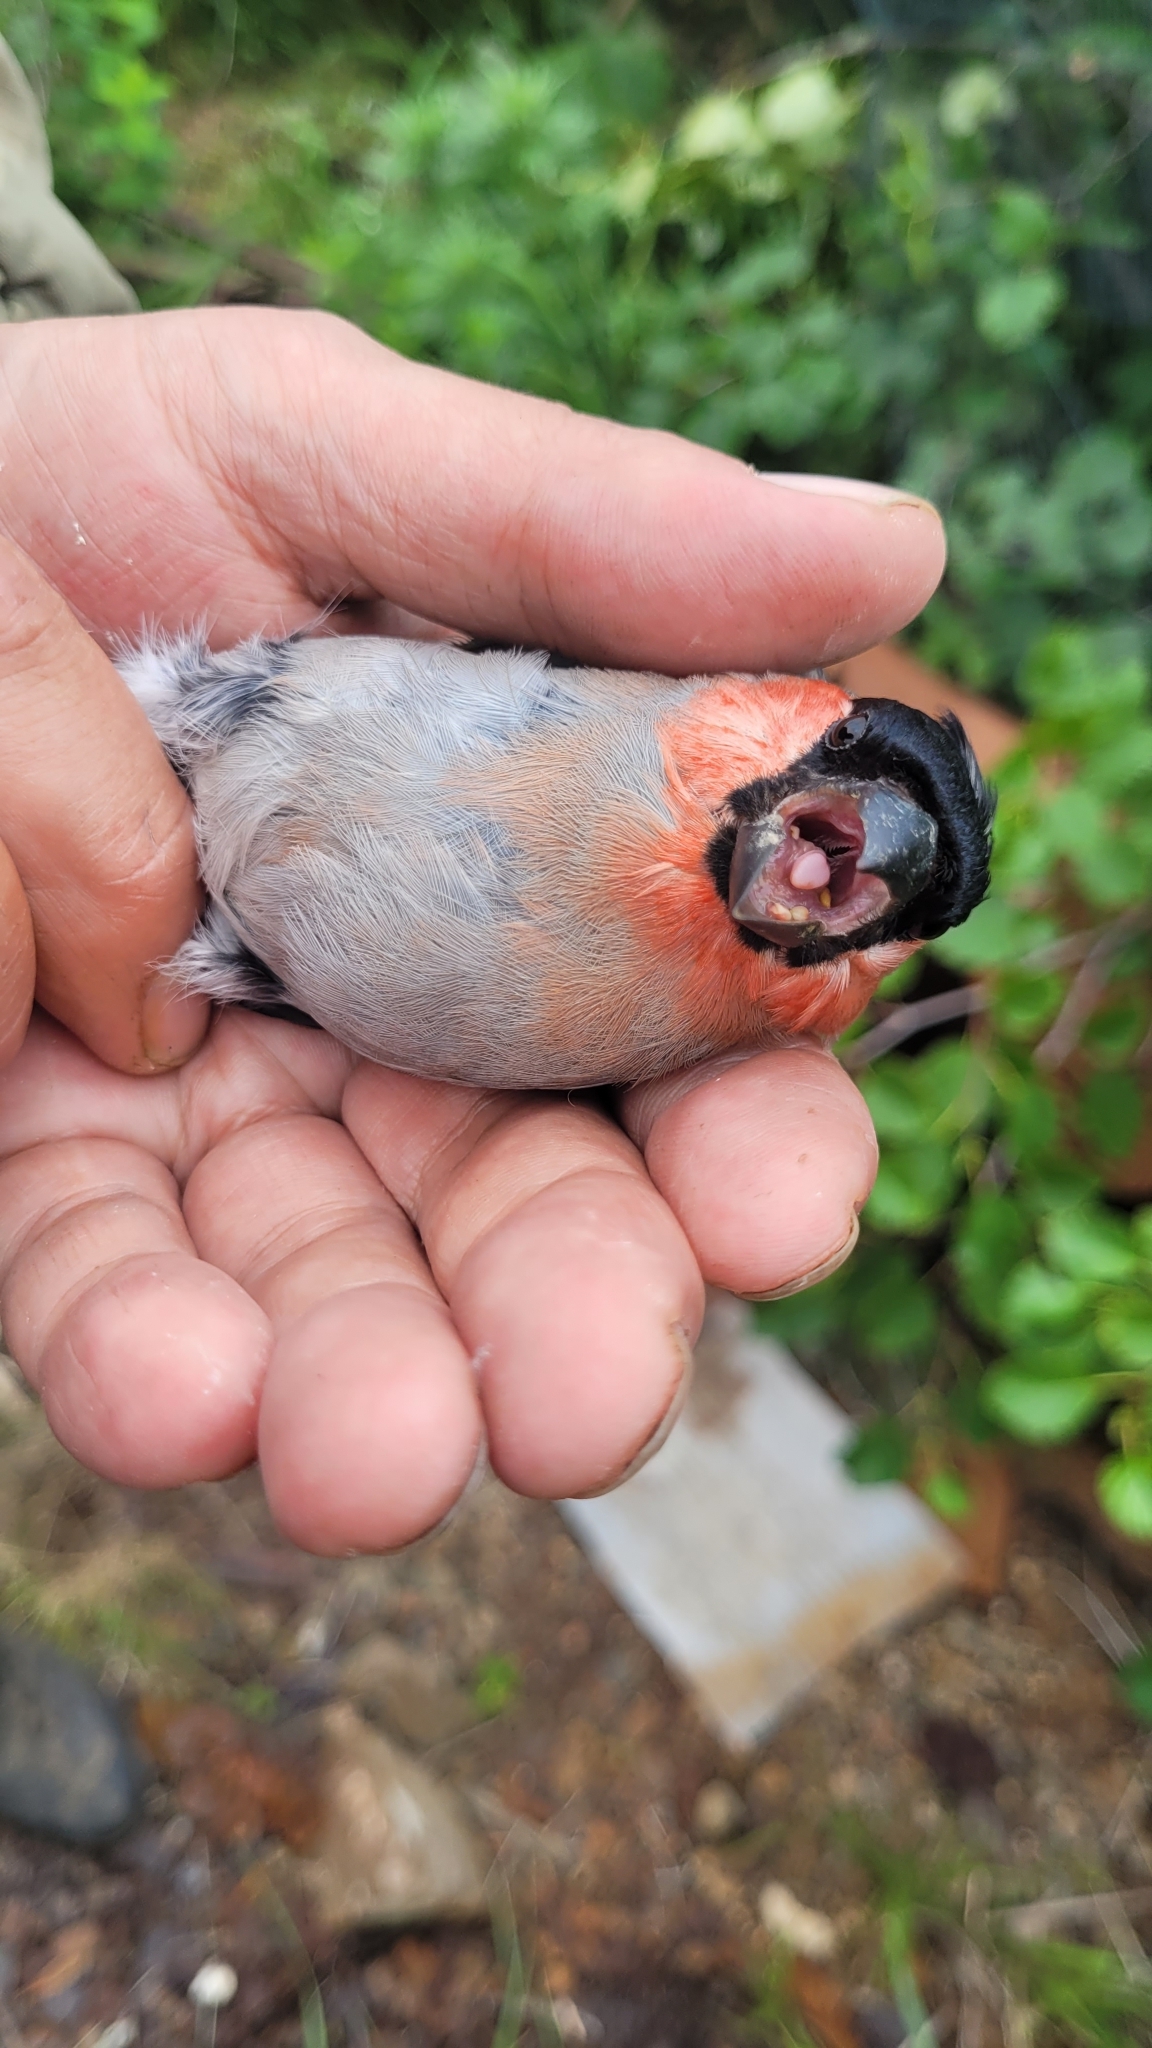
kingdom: Animalia
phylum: Chordata
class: Aves
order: Passeriformes
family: Fringillidae
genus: Pyrrhula
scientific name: Pyrrhula pyrrhula
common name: Eurasian bullfinch
